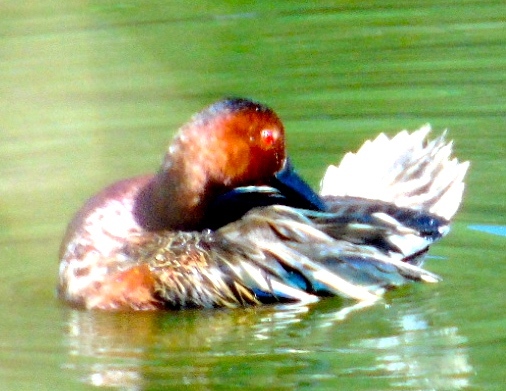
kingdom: Animalia
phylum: Chordata
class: Aves
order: Anseriformes
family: Anatidae
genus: Spatula
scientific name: Spatula cyanoptera
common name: Cinnamon teal
